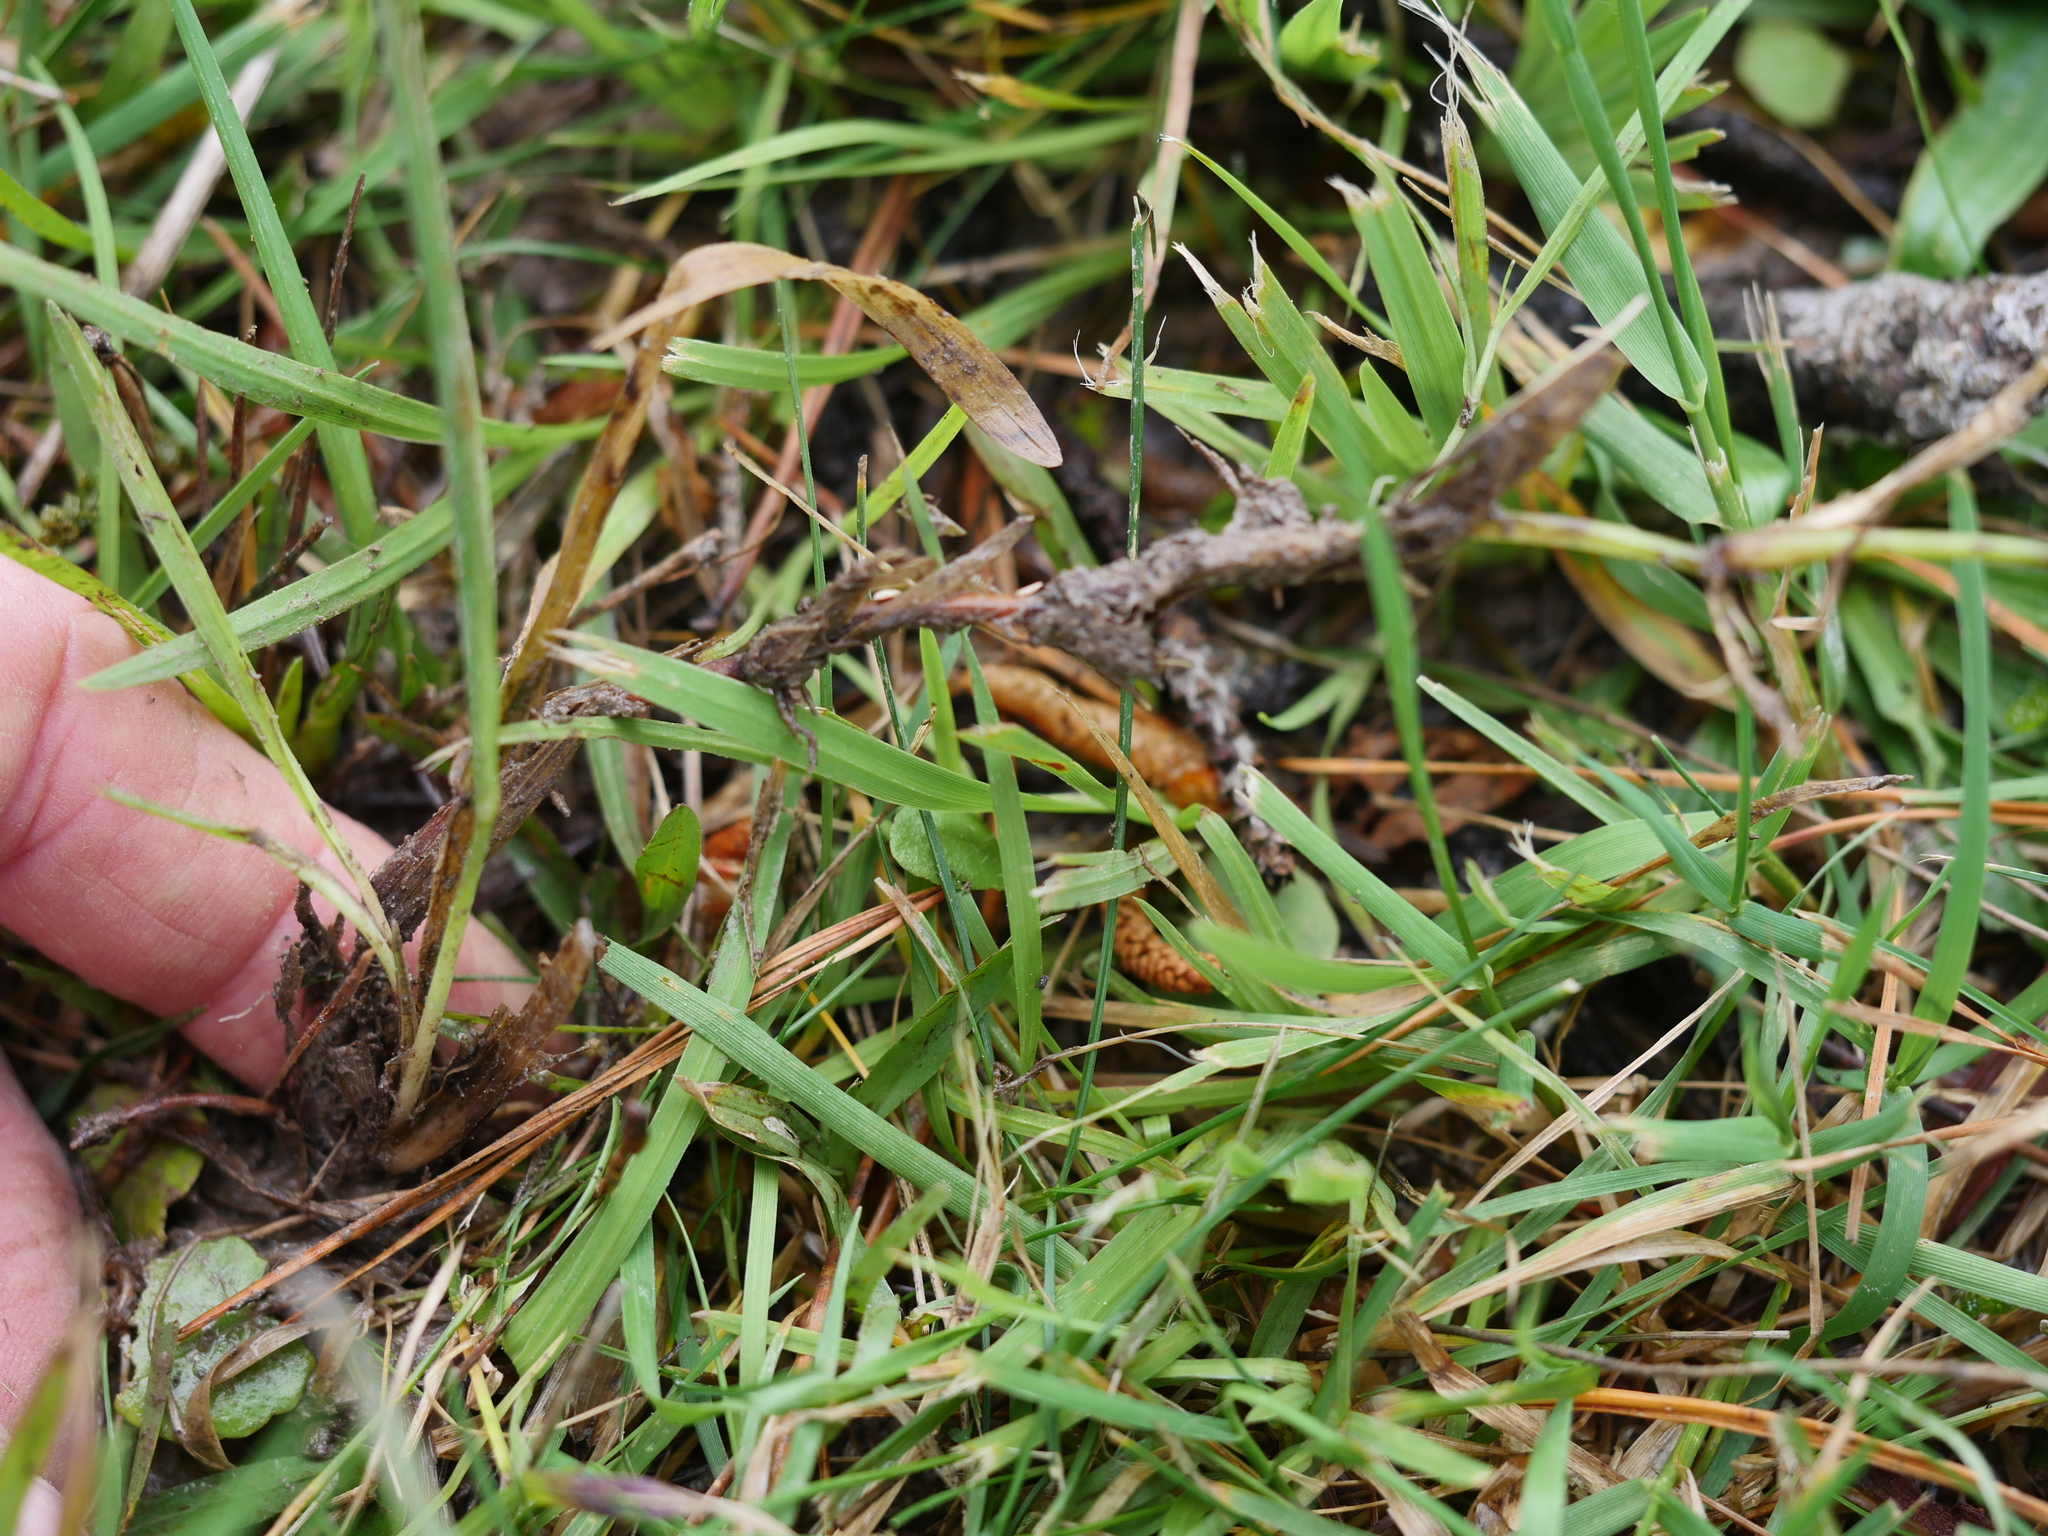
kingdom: Plantae
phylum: Tracheophyta
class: Liliopsida
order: Poales
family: Poaceae
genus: Axonopus
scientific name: Axonopus fissifolius
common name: Common carpetgrass
